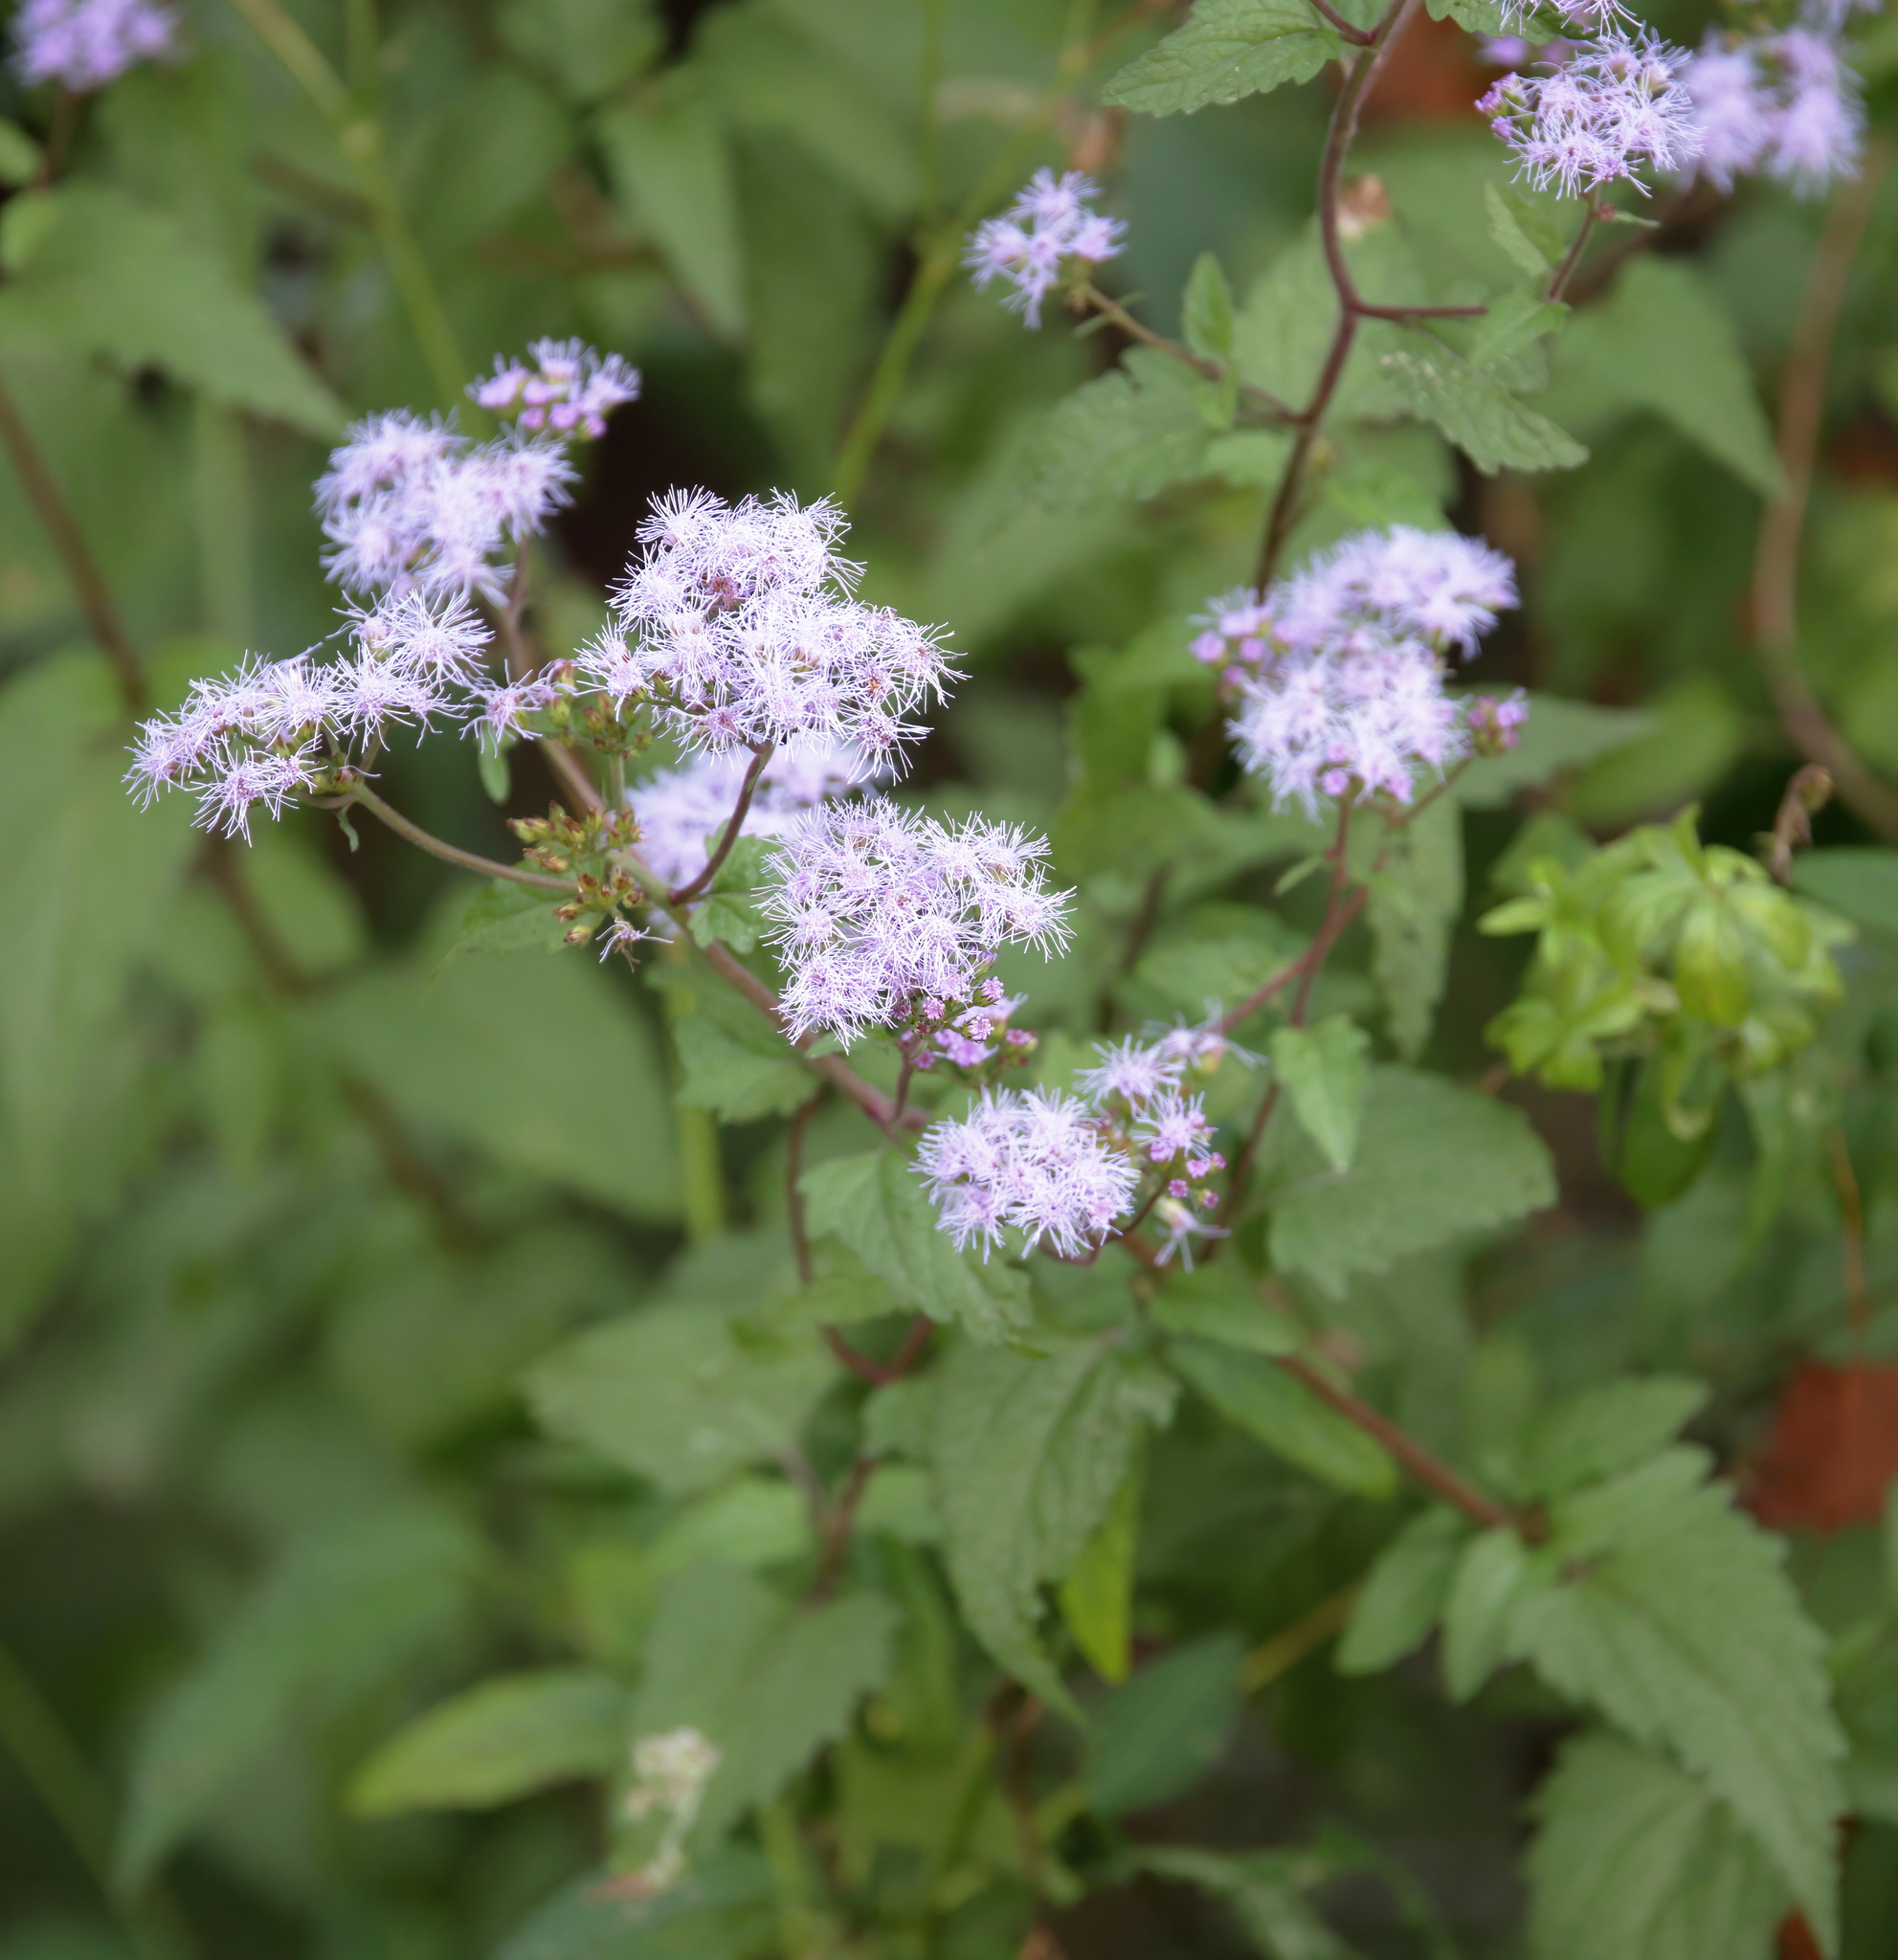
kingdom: Plantae
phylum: Tracheophyta
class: Magnoliopsida
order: Asterales
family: Asteraceae
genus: Conoclinium
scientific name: Conoclinium coelestinum
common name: Blue mistflower
